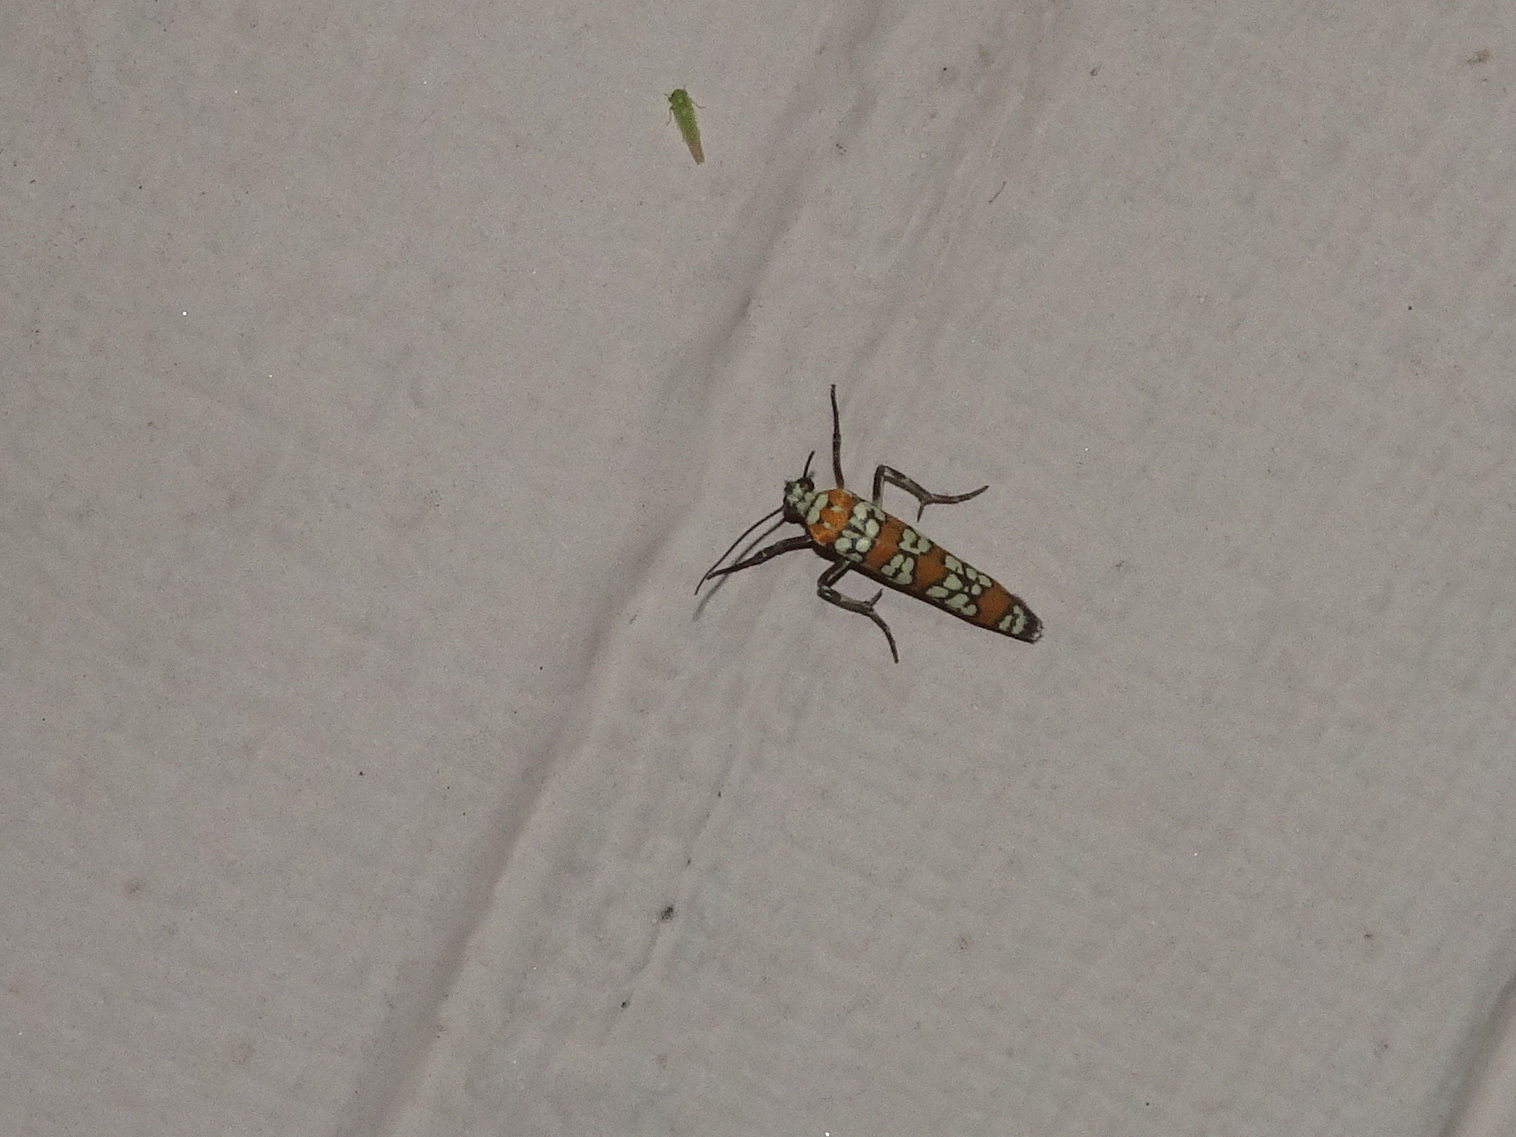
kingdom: Animalia
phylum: Arthropoda
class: Insecta
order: Lepidoptera
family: Attevidae
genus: Atteva
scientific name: Atteva punctella
